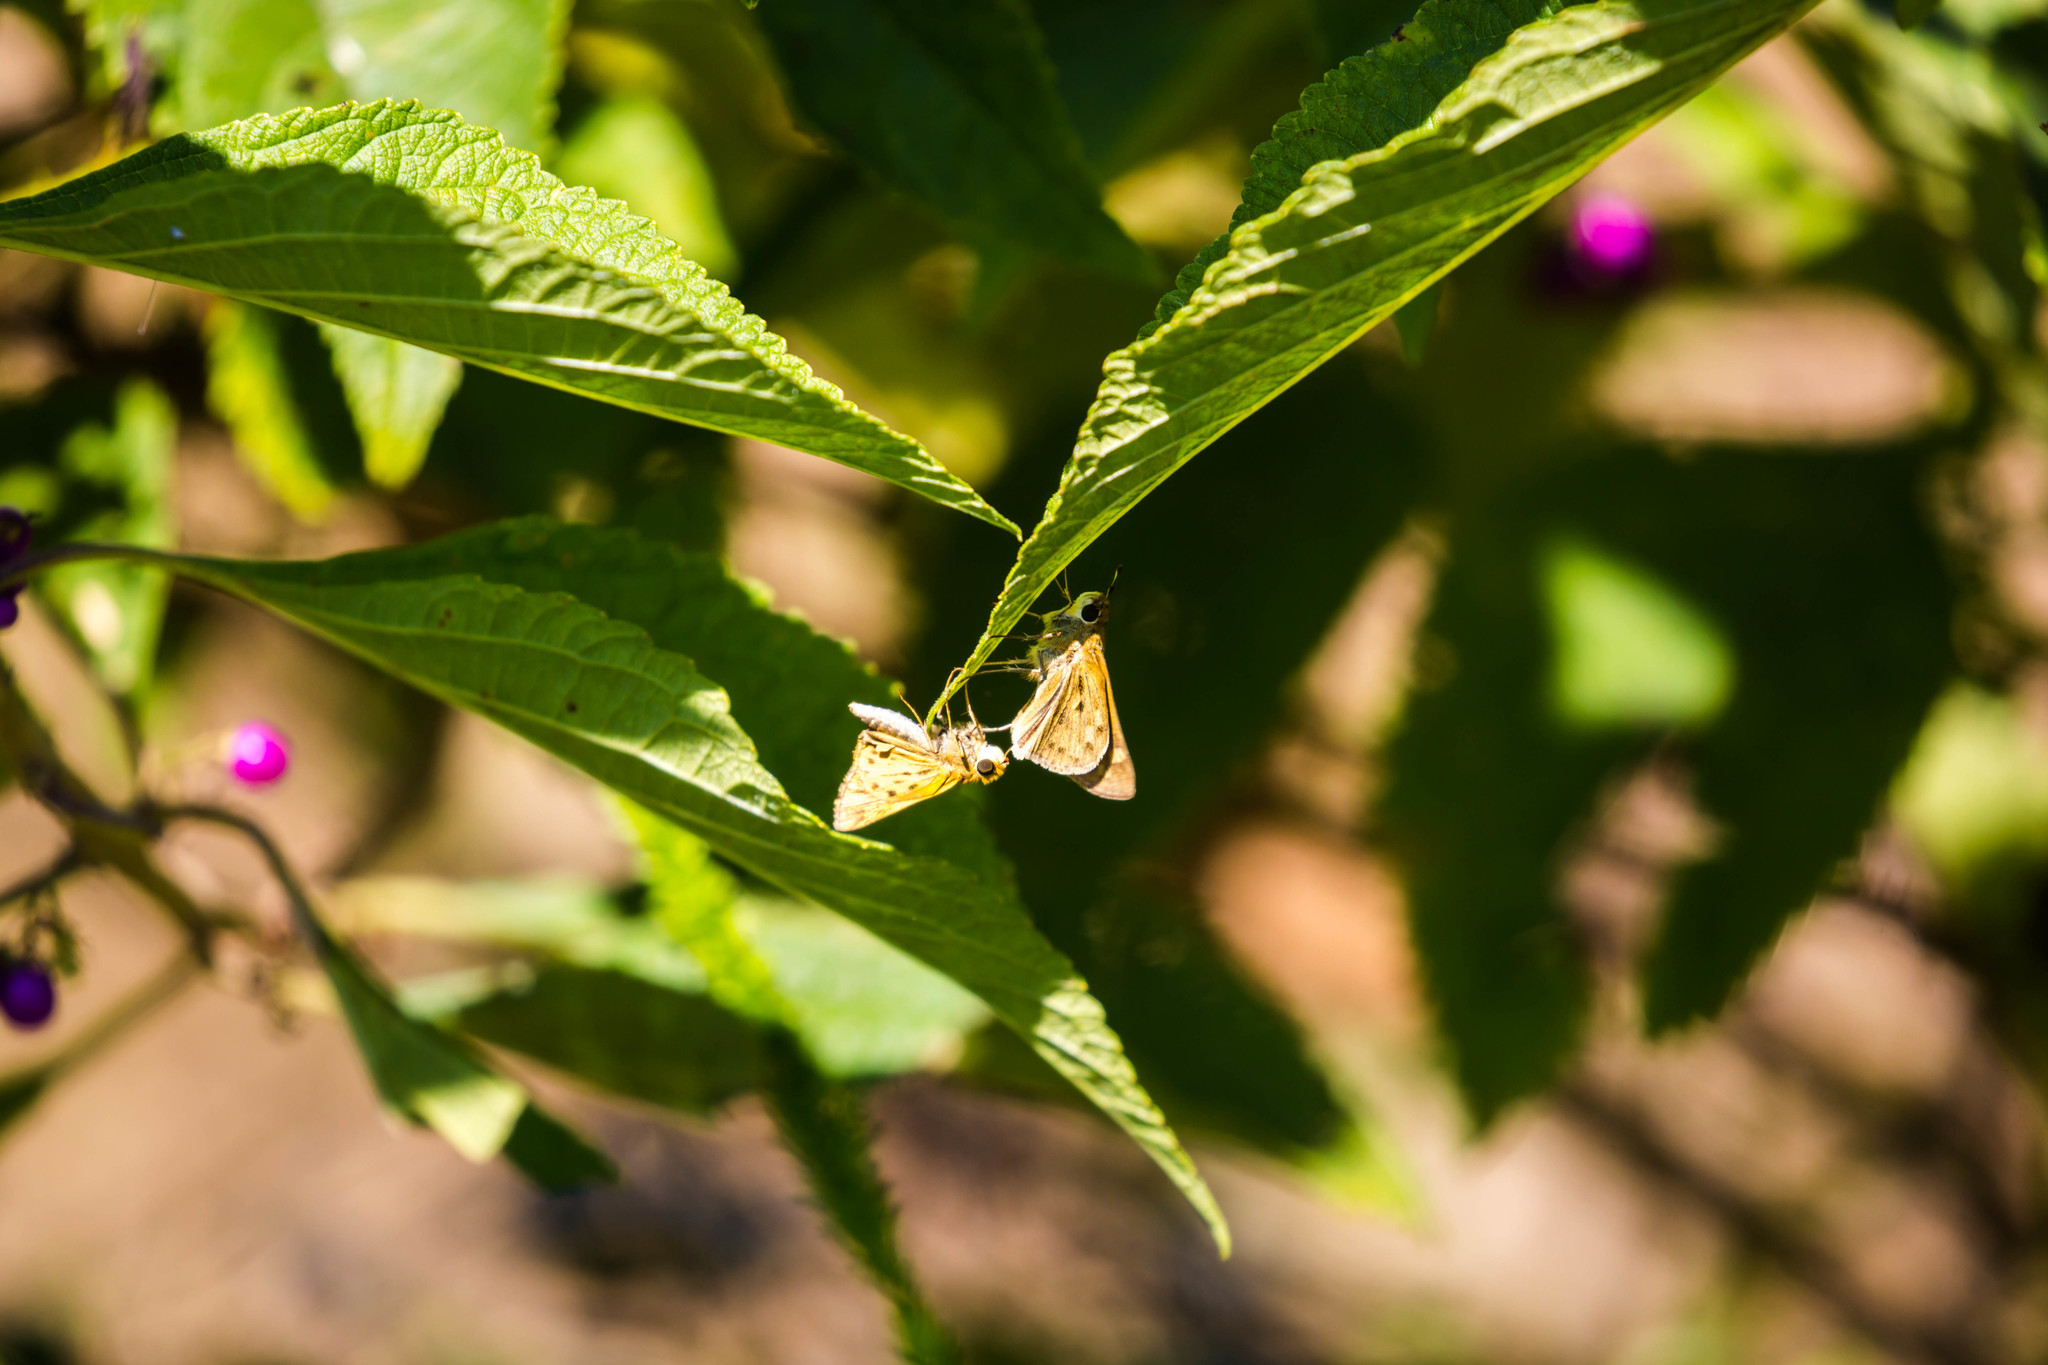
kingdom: Animalia
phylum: Arthropoda
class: Insecta
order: Lepidoptera
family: Hesperiidae
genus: Hylephila
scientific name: Hylephila phyleus
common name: Fiery skipper
